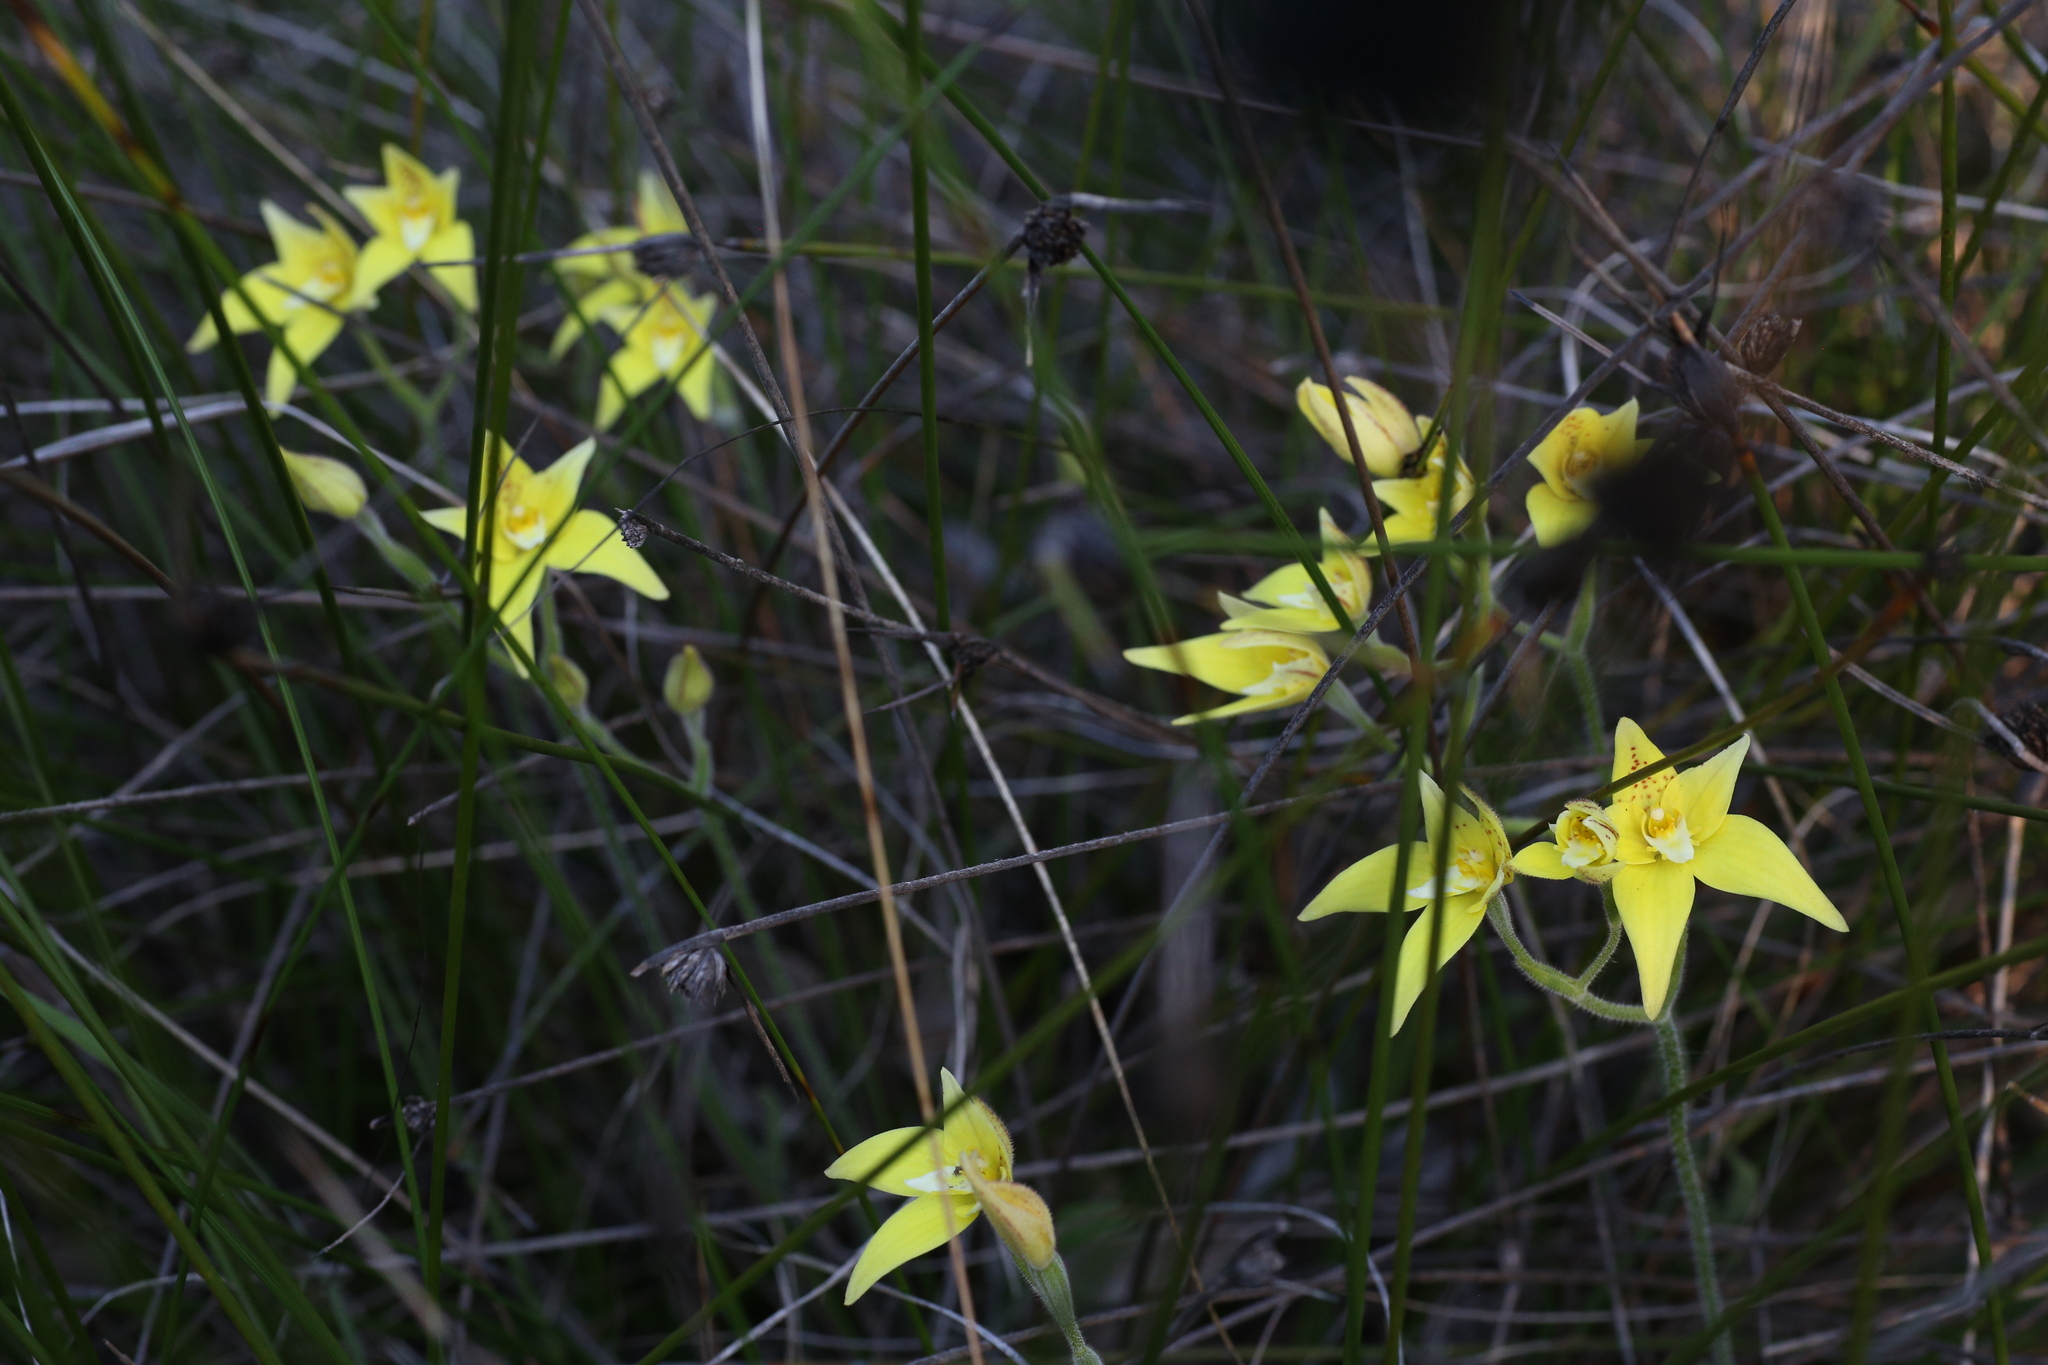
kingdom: Plantae
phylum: Tracheophyta
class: Liliopsida
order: Asparagales
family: Orchidaceae
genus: Caladenia
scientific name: Caladenia flava
